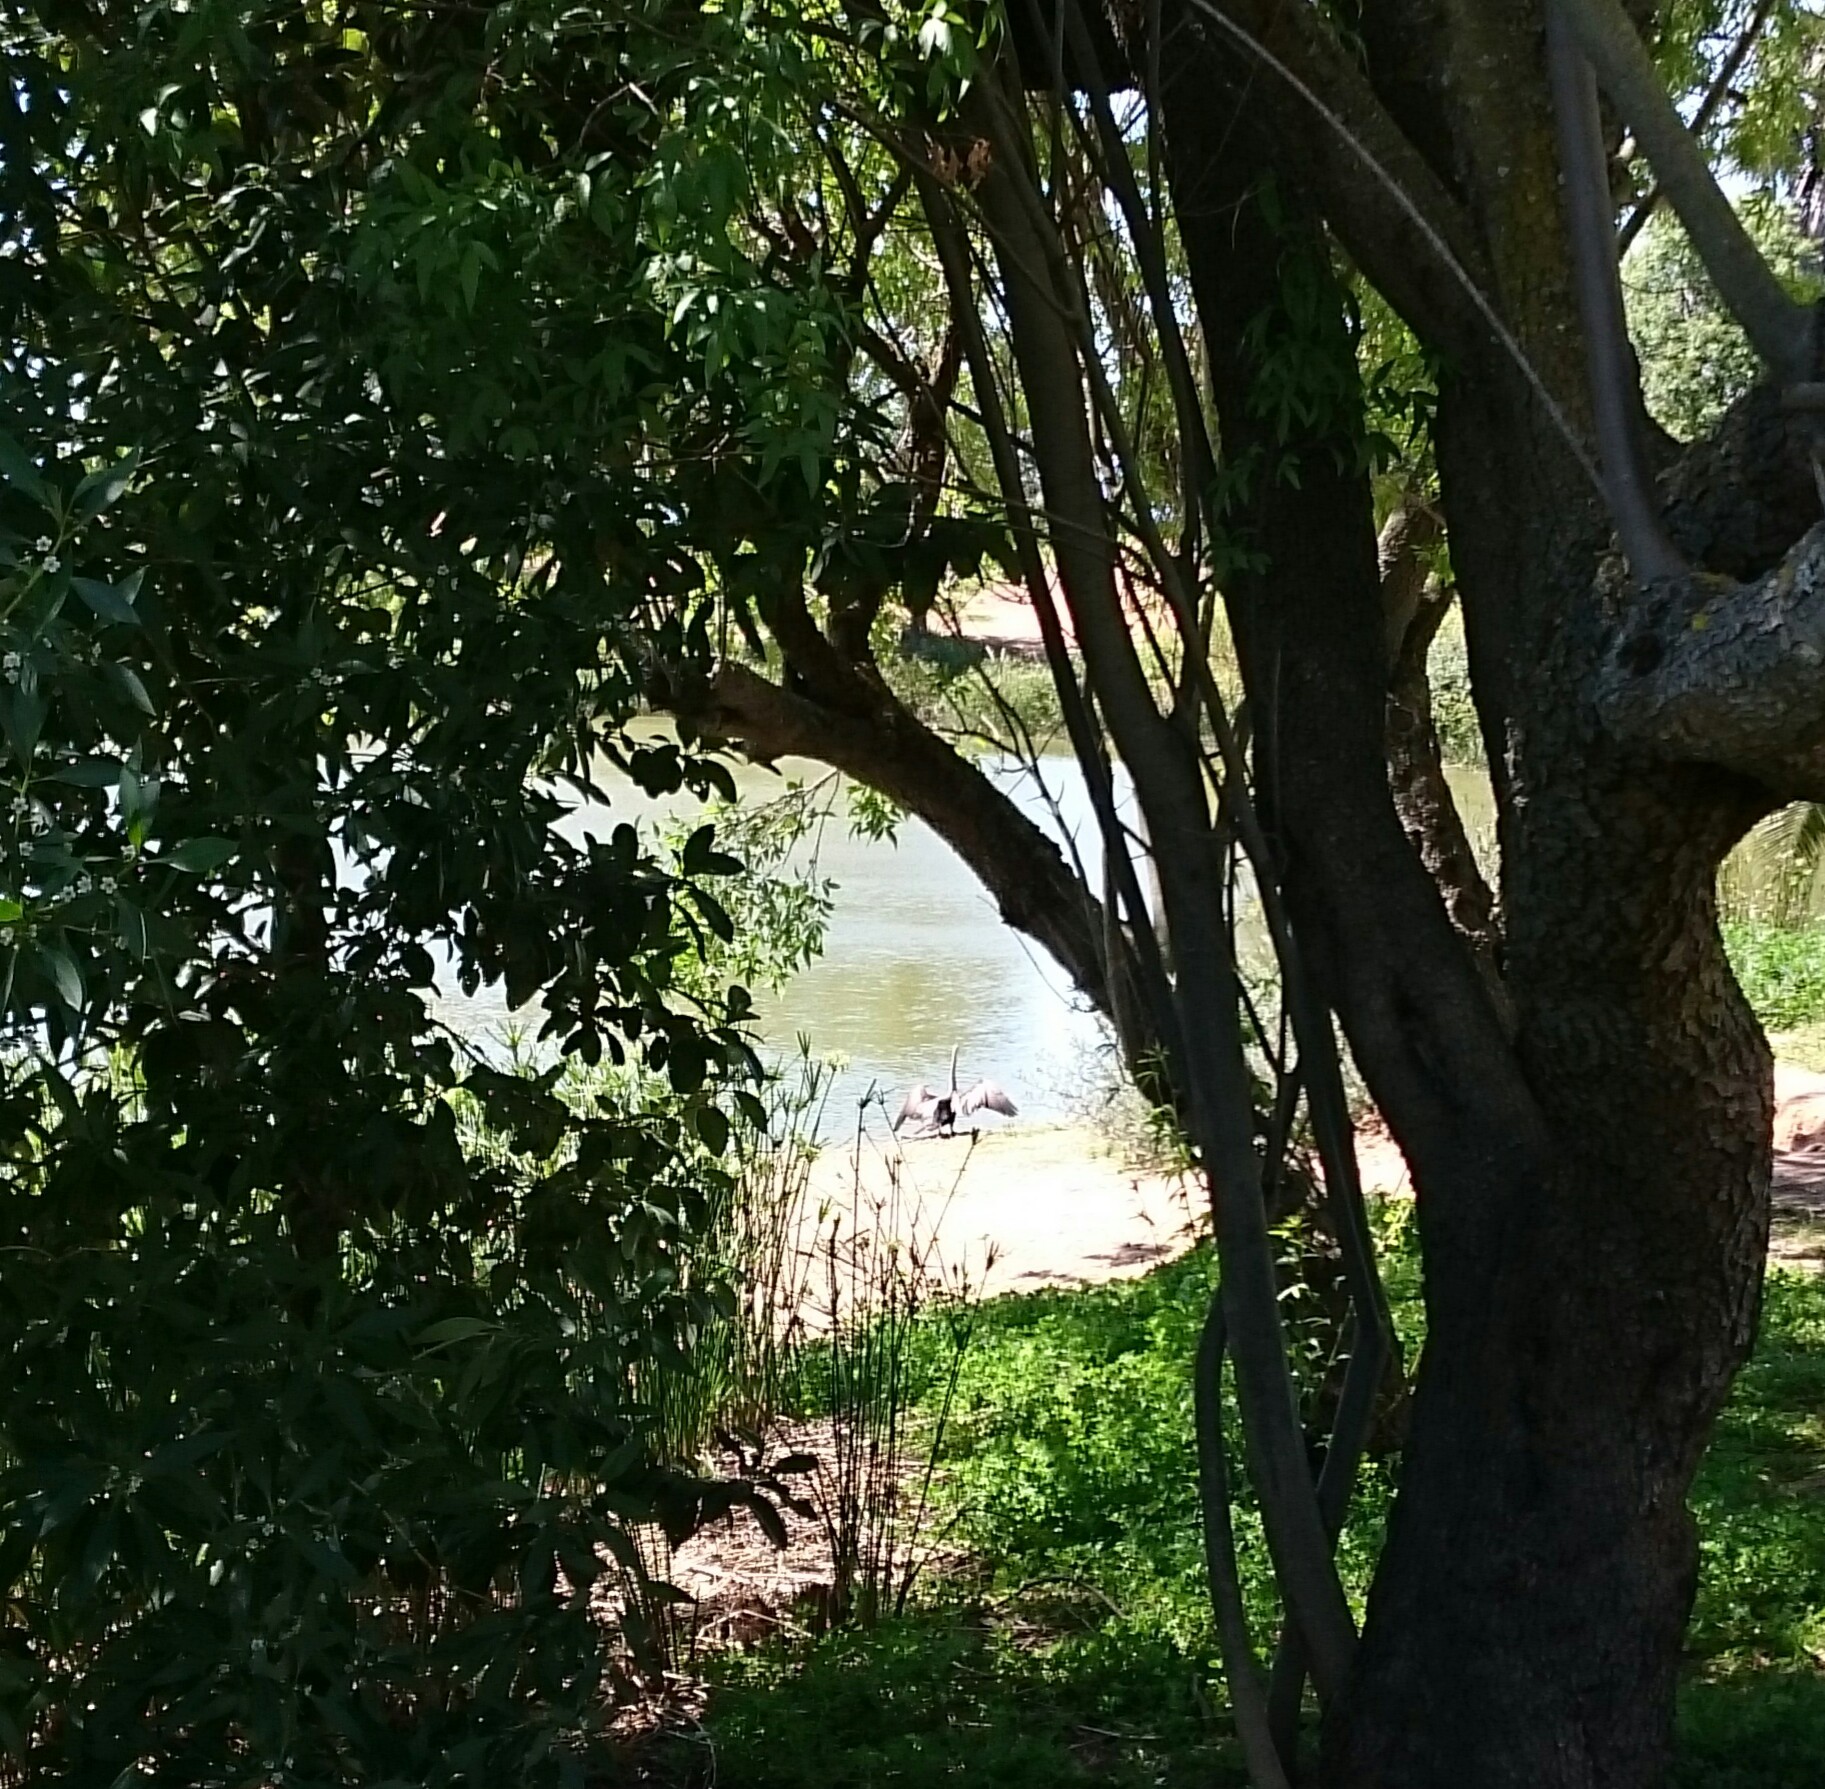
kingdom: Animalia
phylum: Chordata
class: Aves
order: Suliformes
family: Anhingidae
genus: Anhinga
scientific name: Anhinga rufa
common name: African darter
